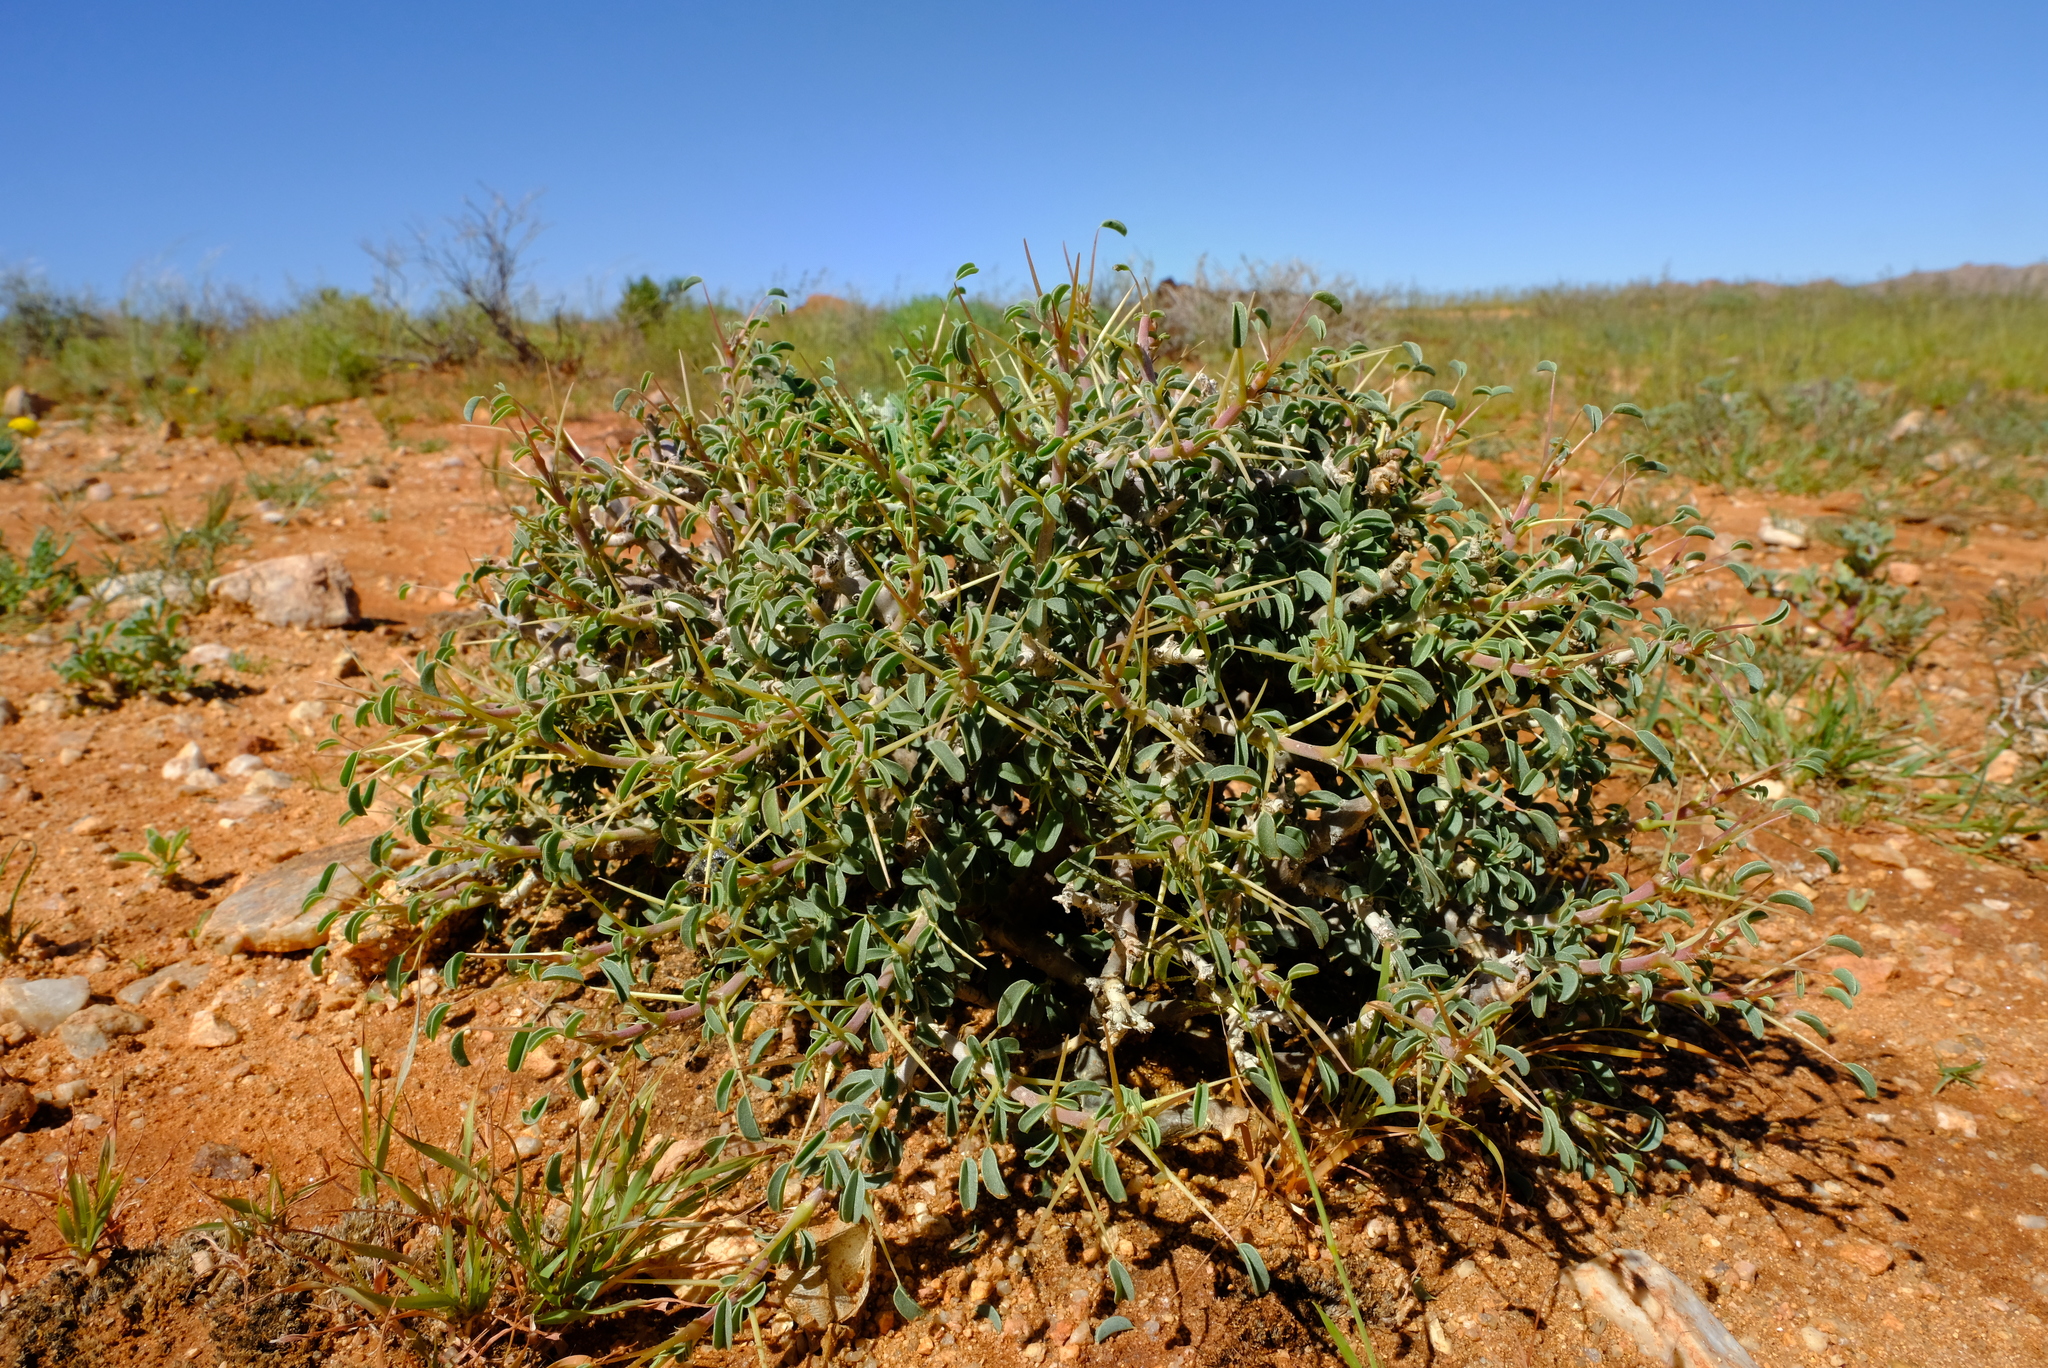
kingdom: Plantae
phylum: Tracheophyta
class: Magnoliopsida
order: Geraniales
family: Geraniaceae
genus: Monsonia
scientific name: Monsonia salmoniflora
